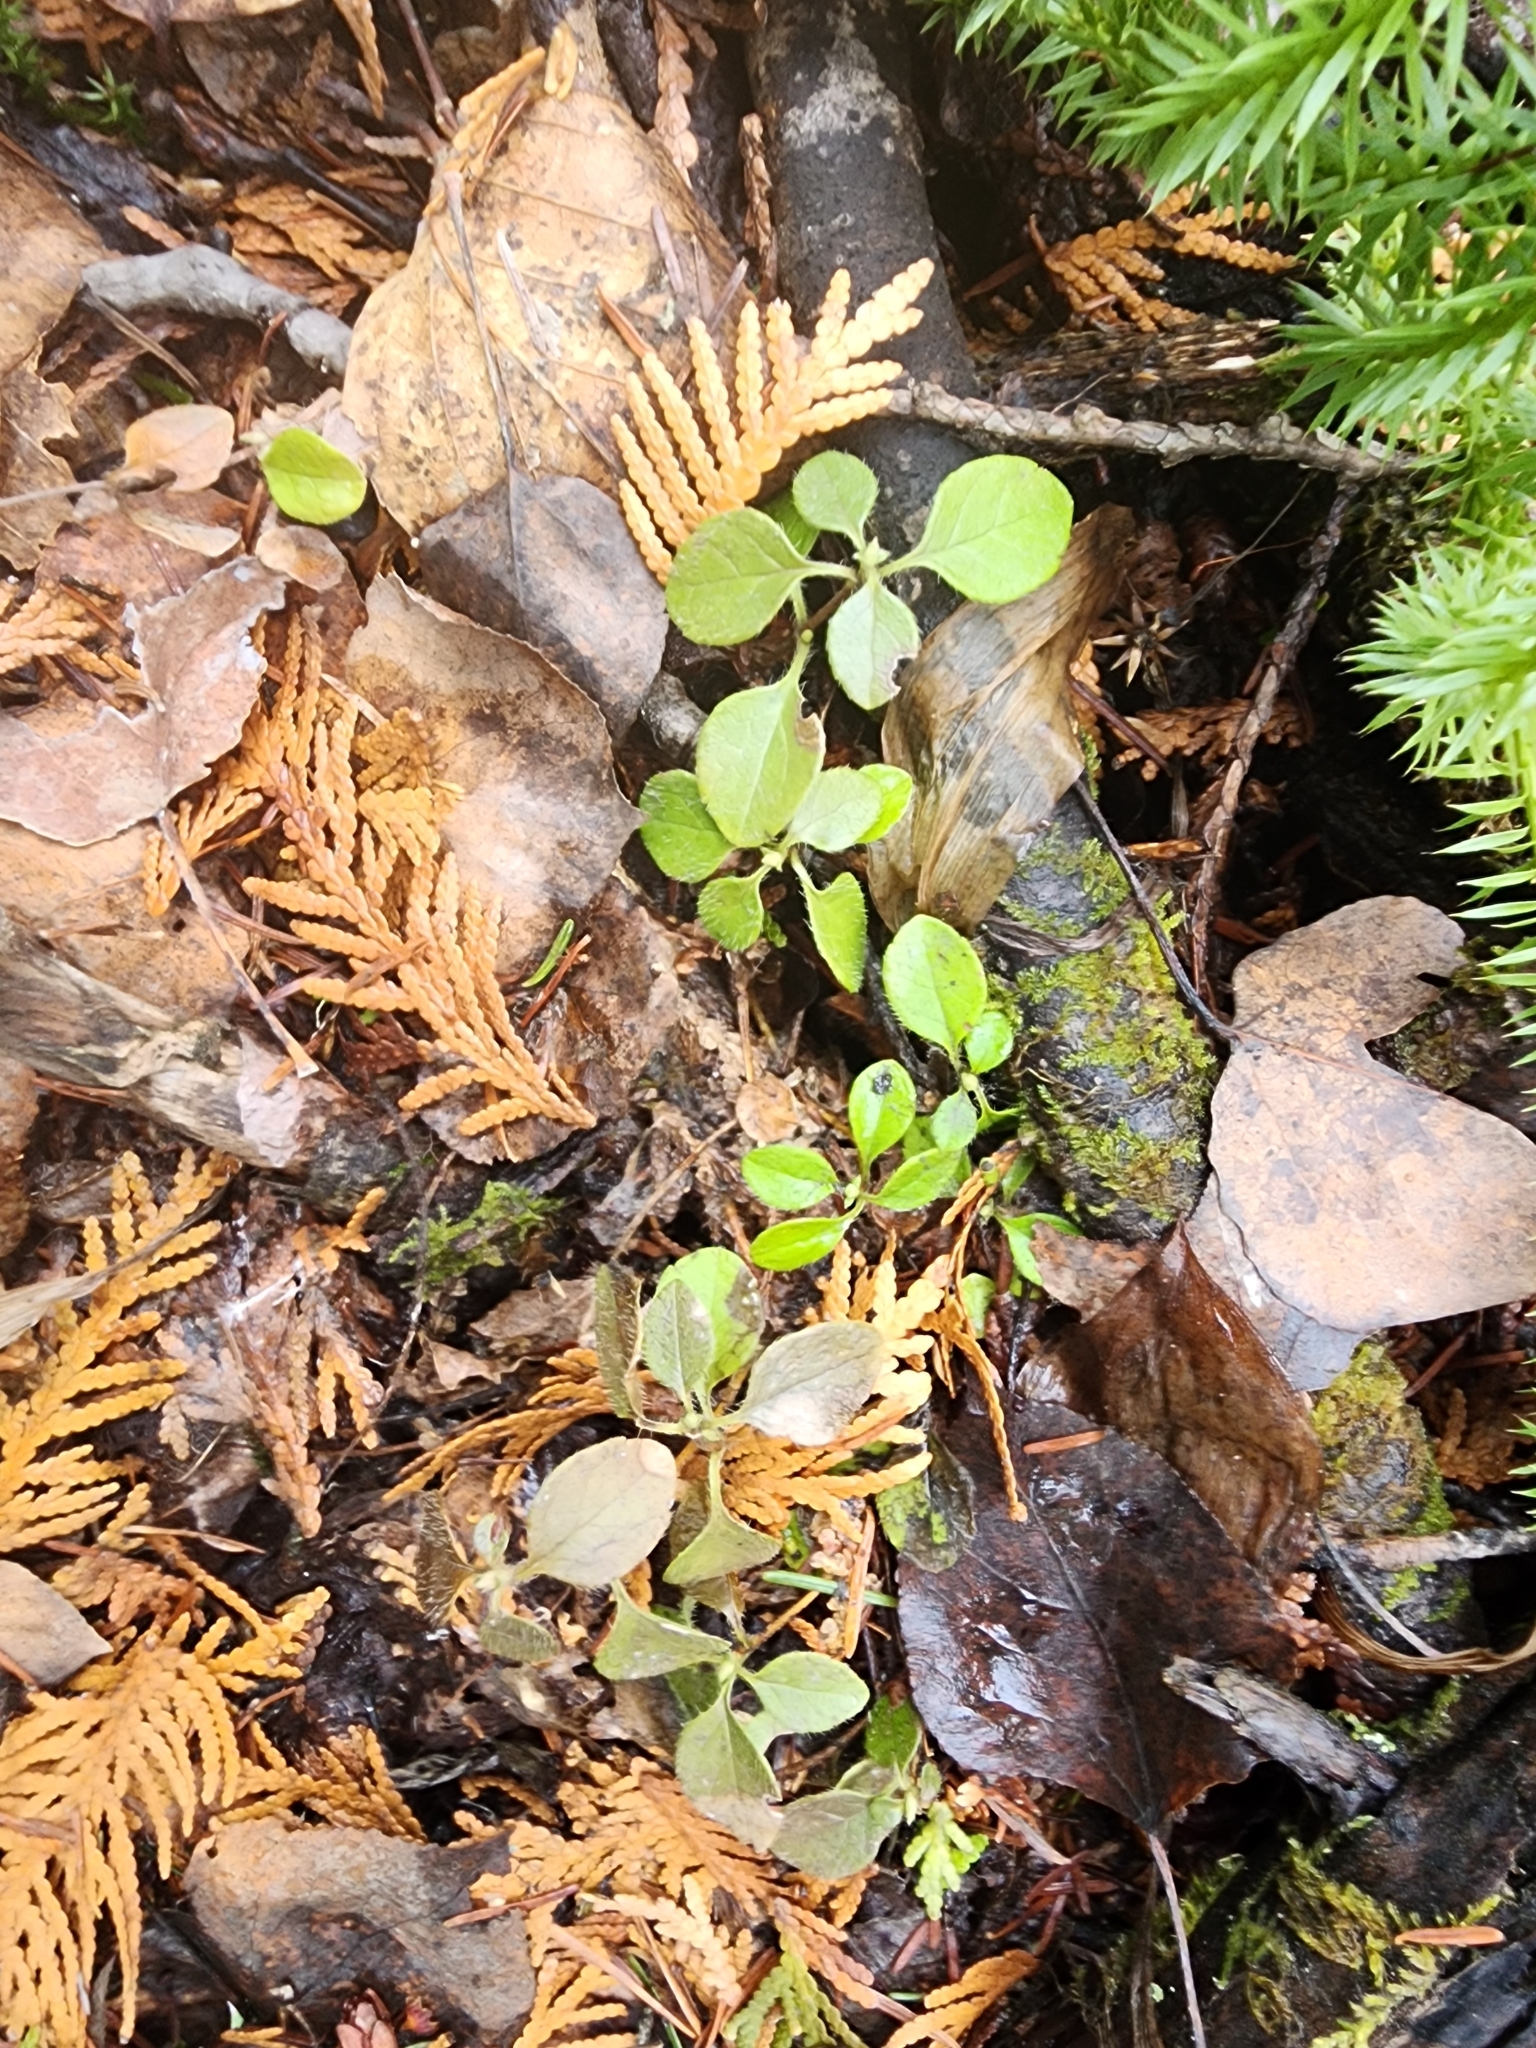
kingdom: Plantae
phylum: Tracheophyta
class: Magnoliopsida
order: Dipsacales
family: Caprifoliaceae
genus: Linnaea
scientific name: Linnaea borealis
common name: Twinflower
